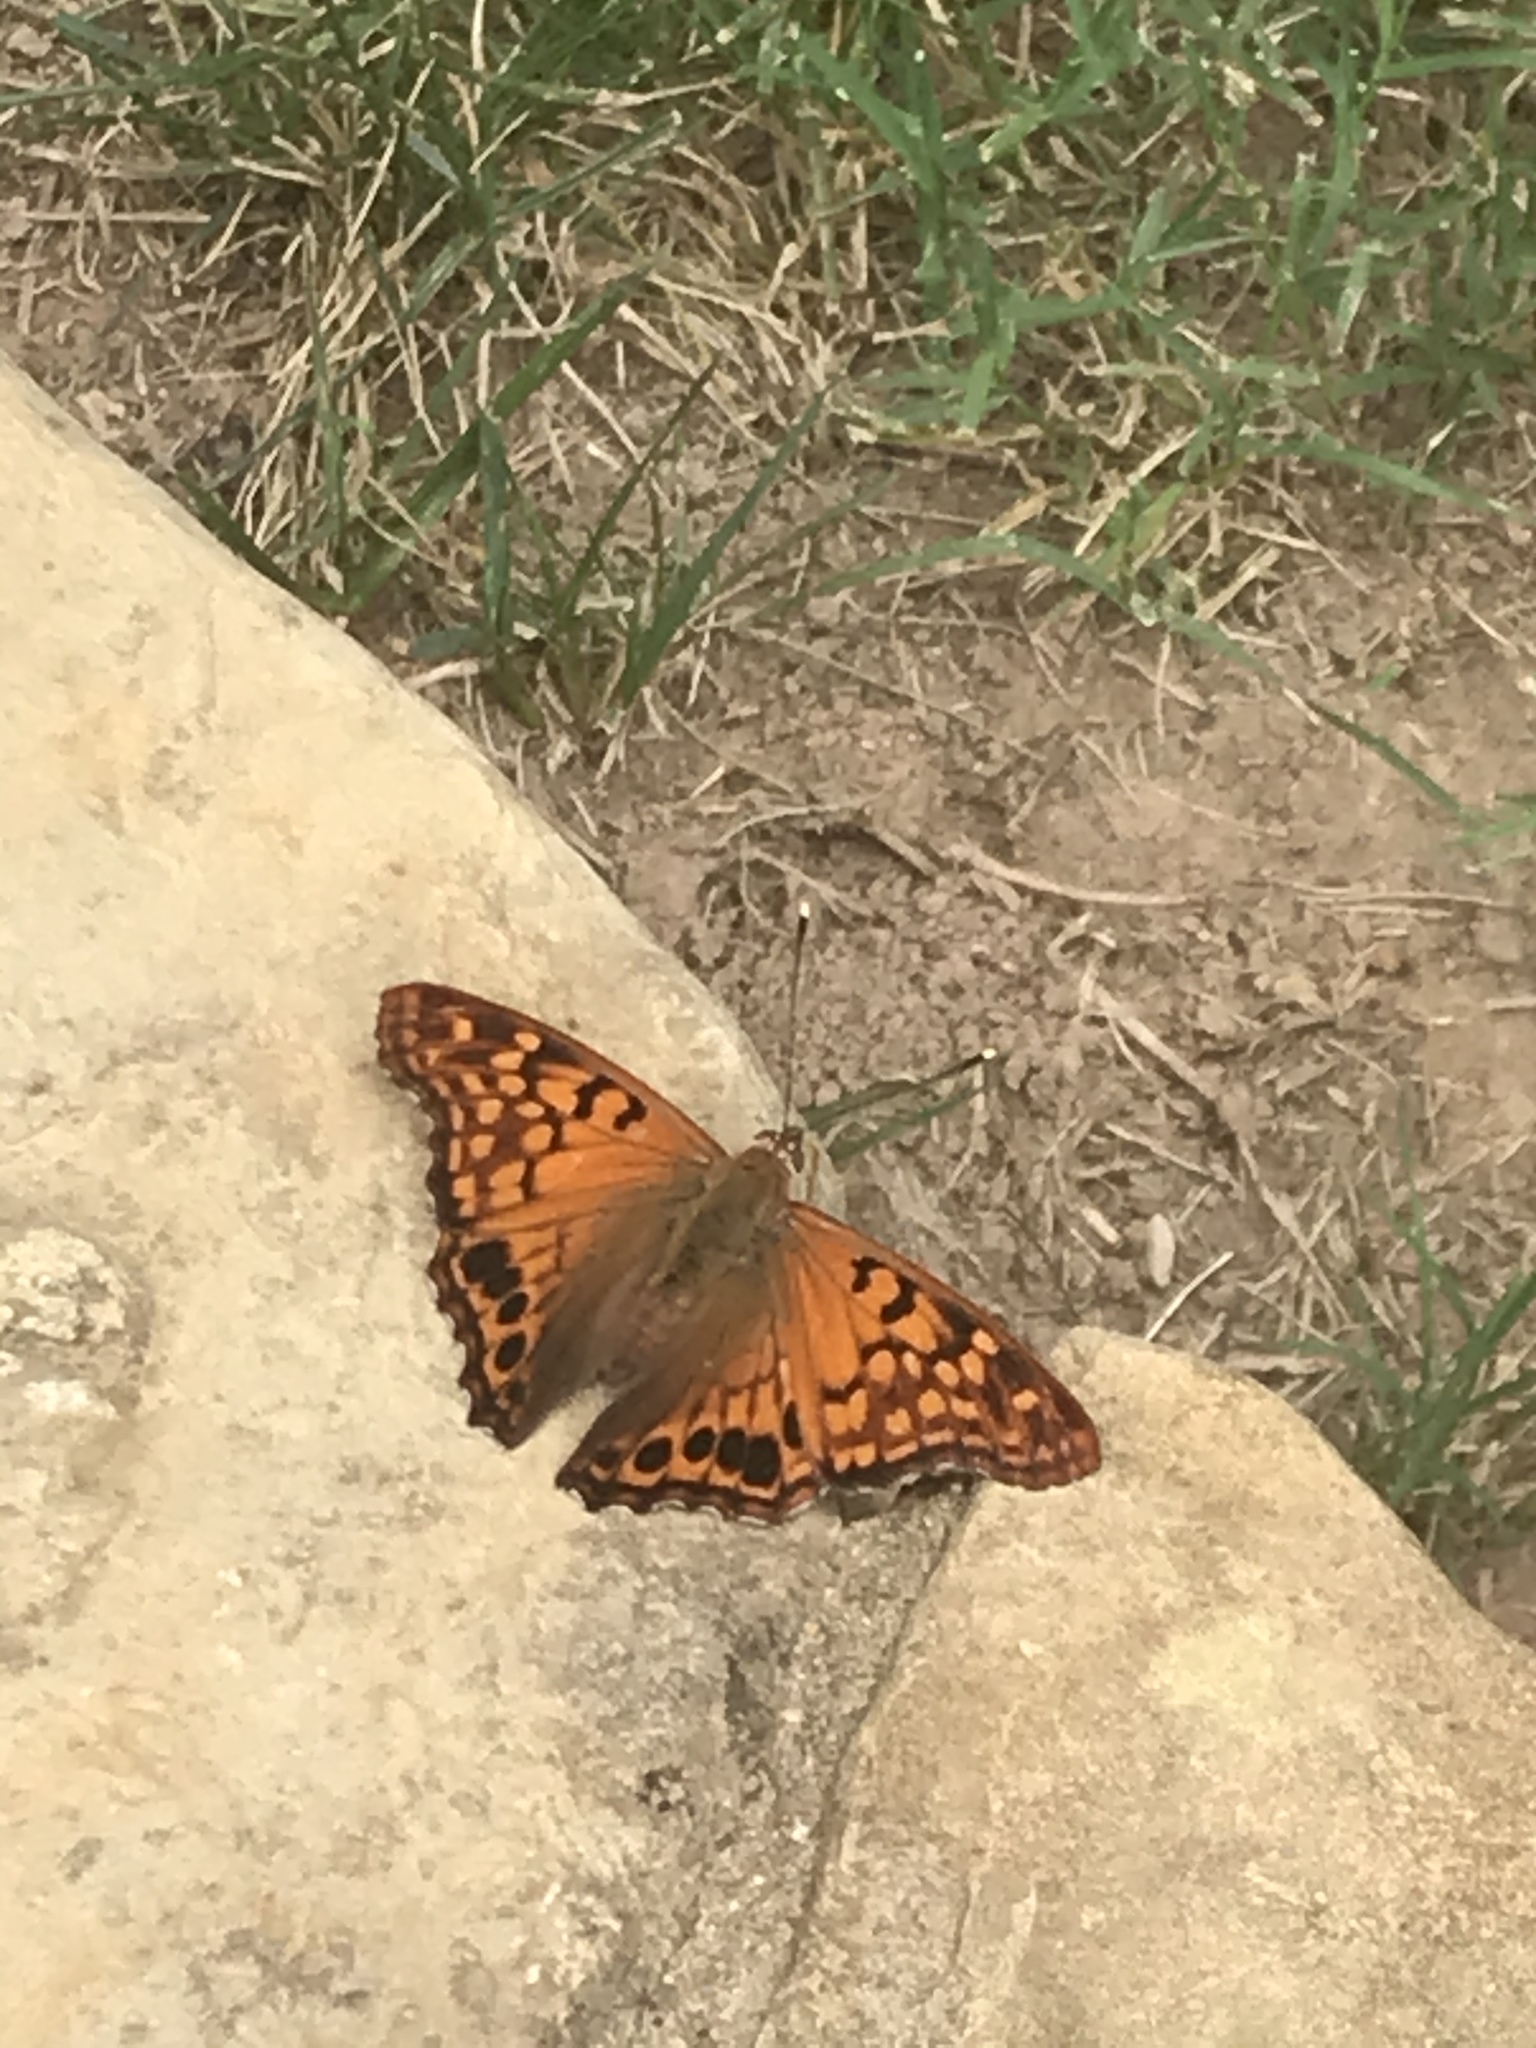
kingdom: Animalia
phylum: Arthropoda
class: Insecta
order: Lepidoptera
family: Nymphalidae
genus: Asterocampa
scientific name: Asterocampa clyton
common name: Tawny emperor
